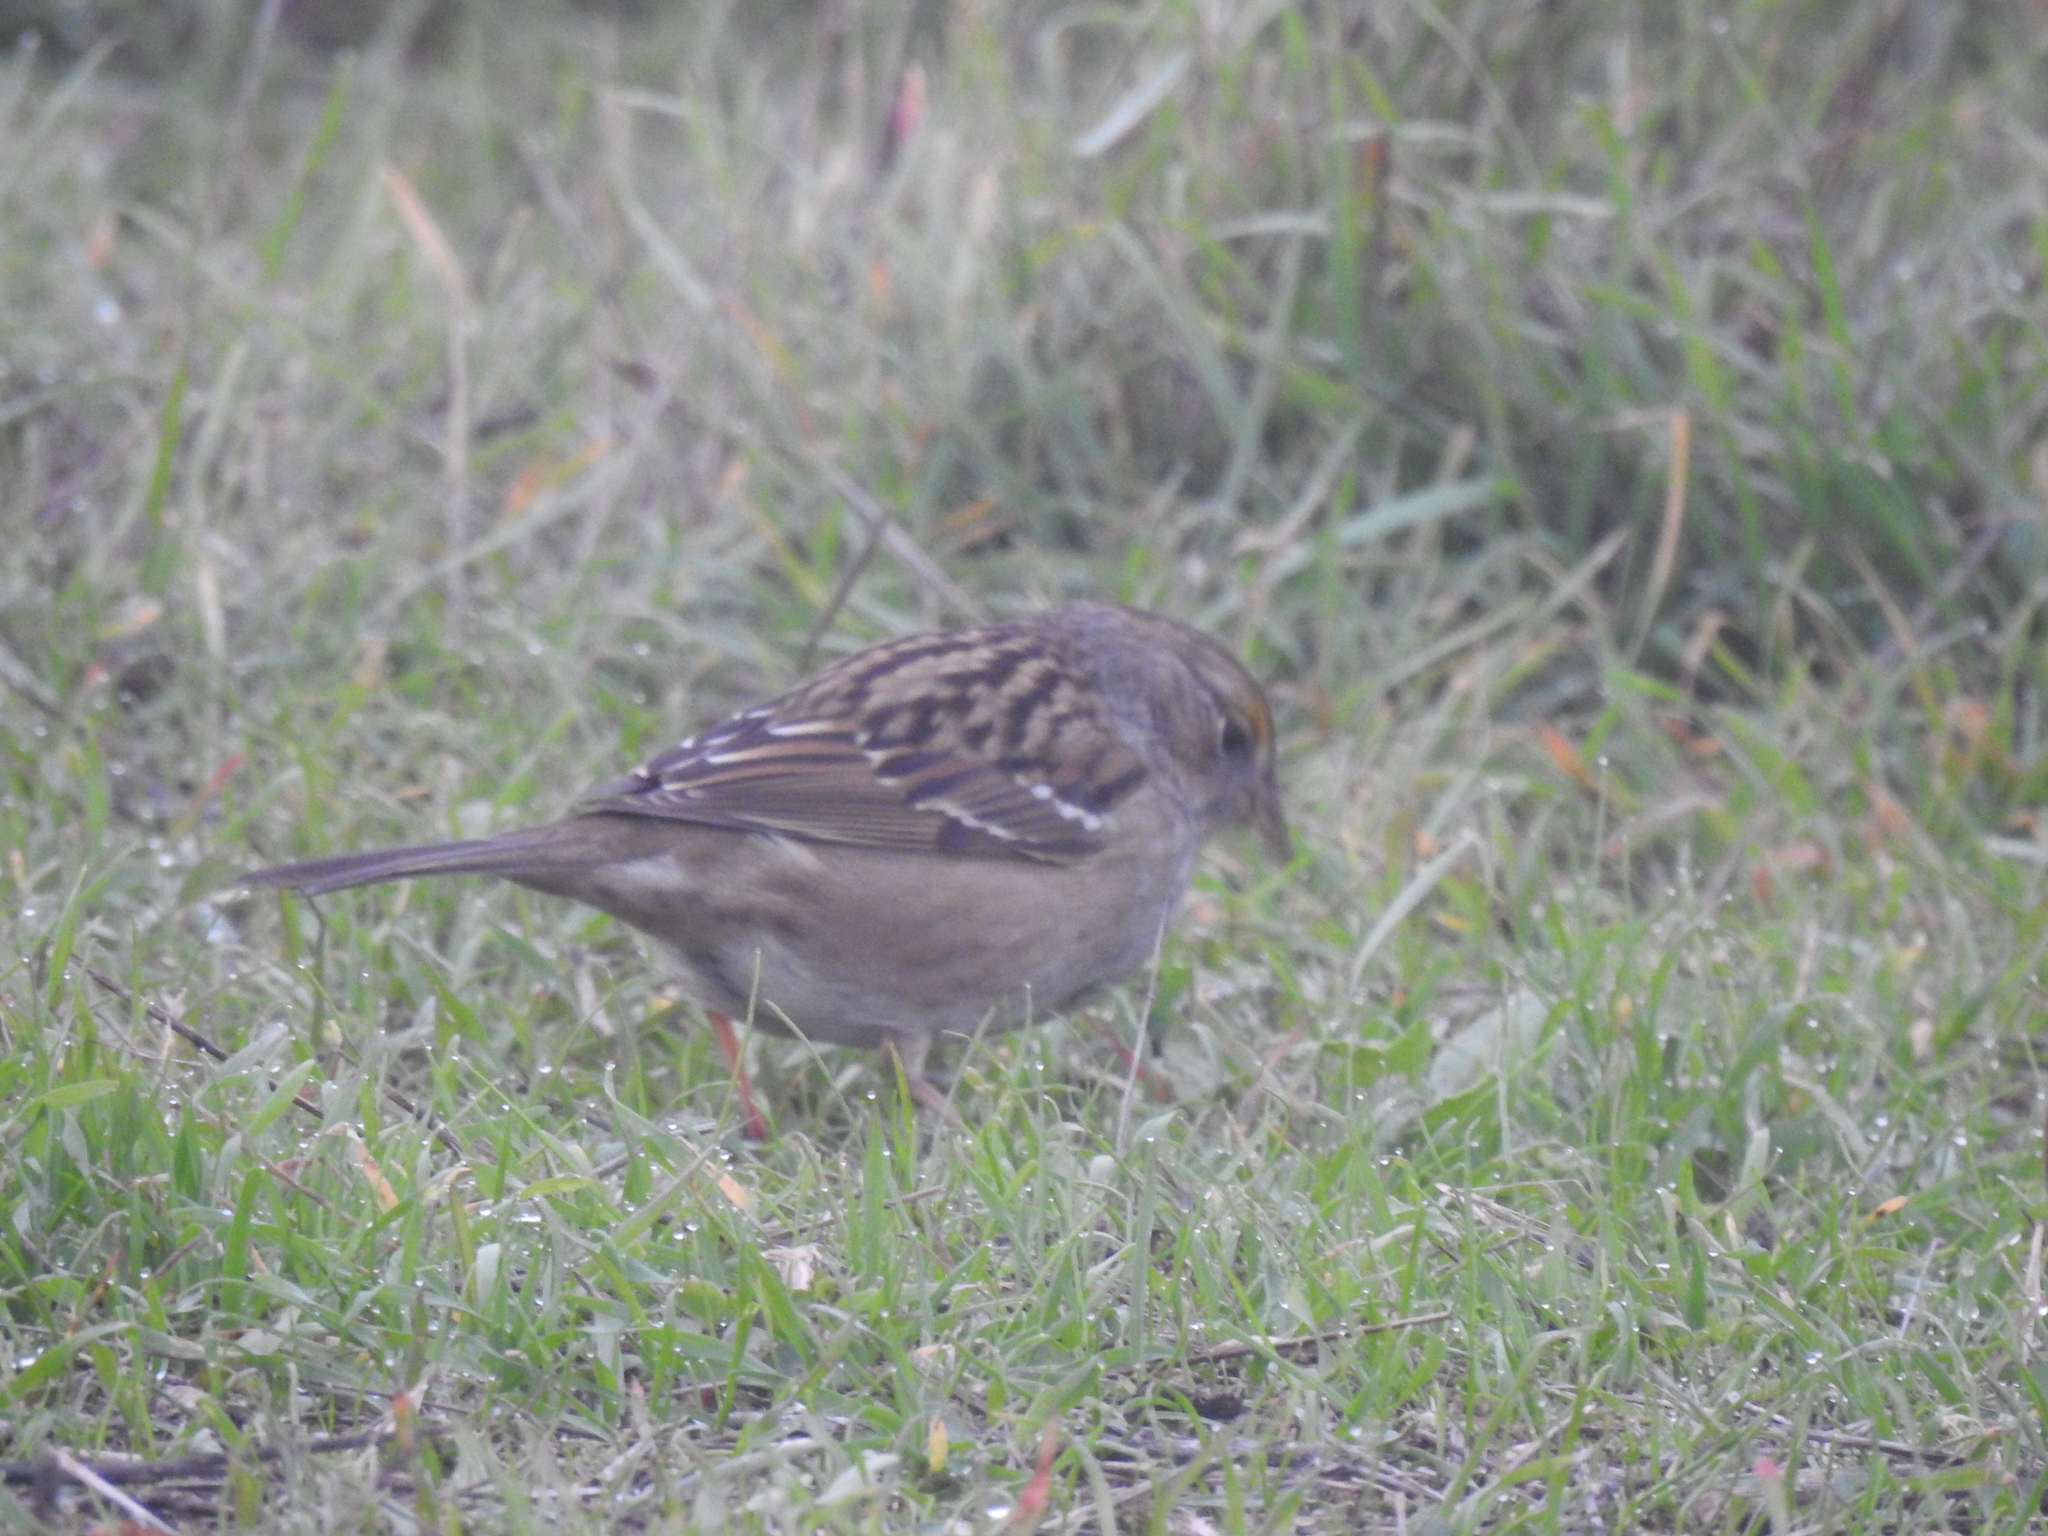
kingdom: Animalia
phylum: Chordata
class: Aves
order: Passeriformes
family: Passerellidae
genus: Zonotrichia
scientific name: Zonotrichia atricapilla
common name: Golden-crowned sparrow
